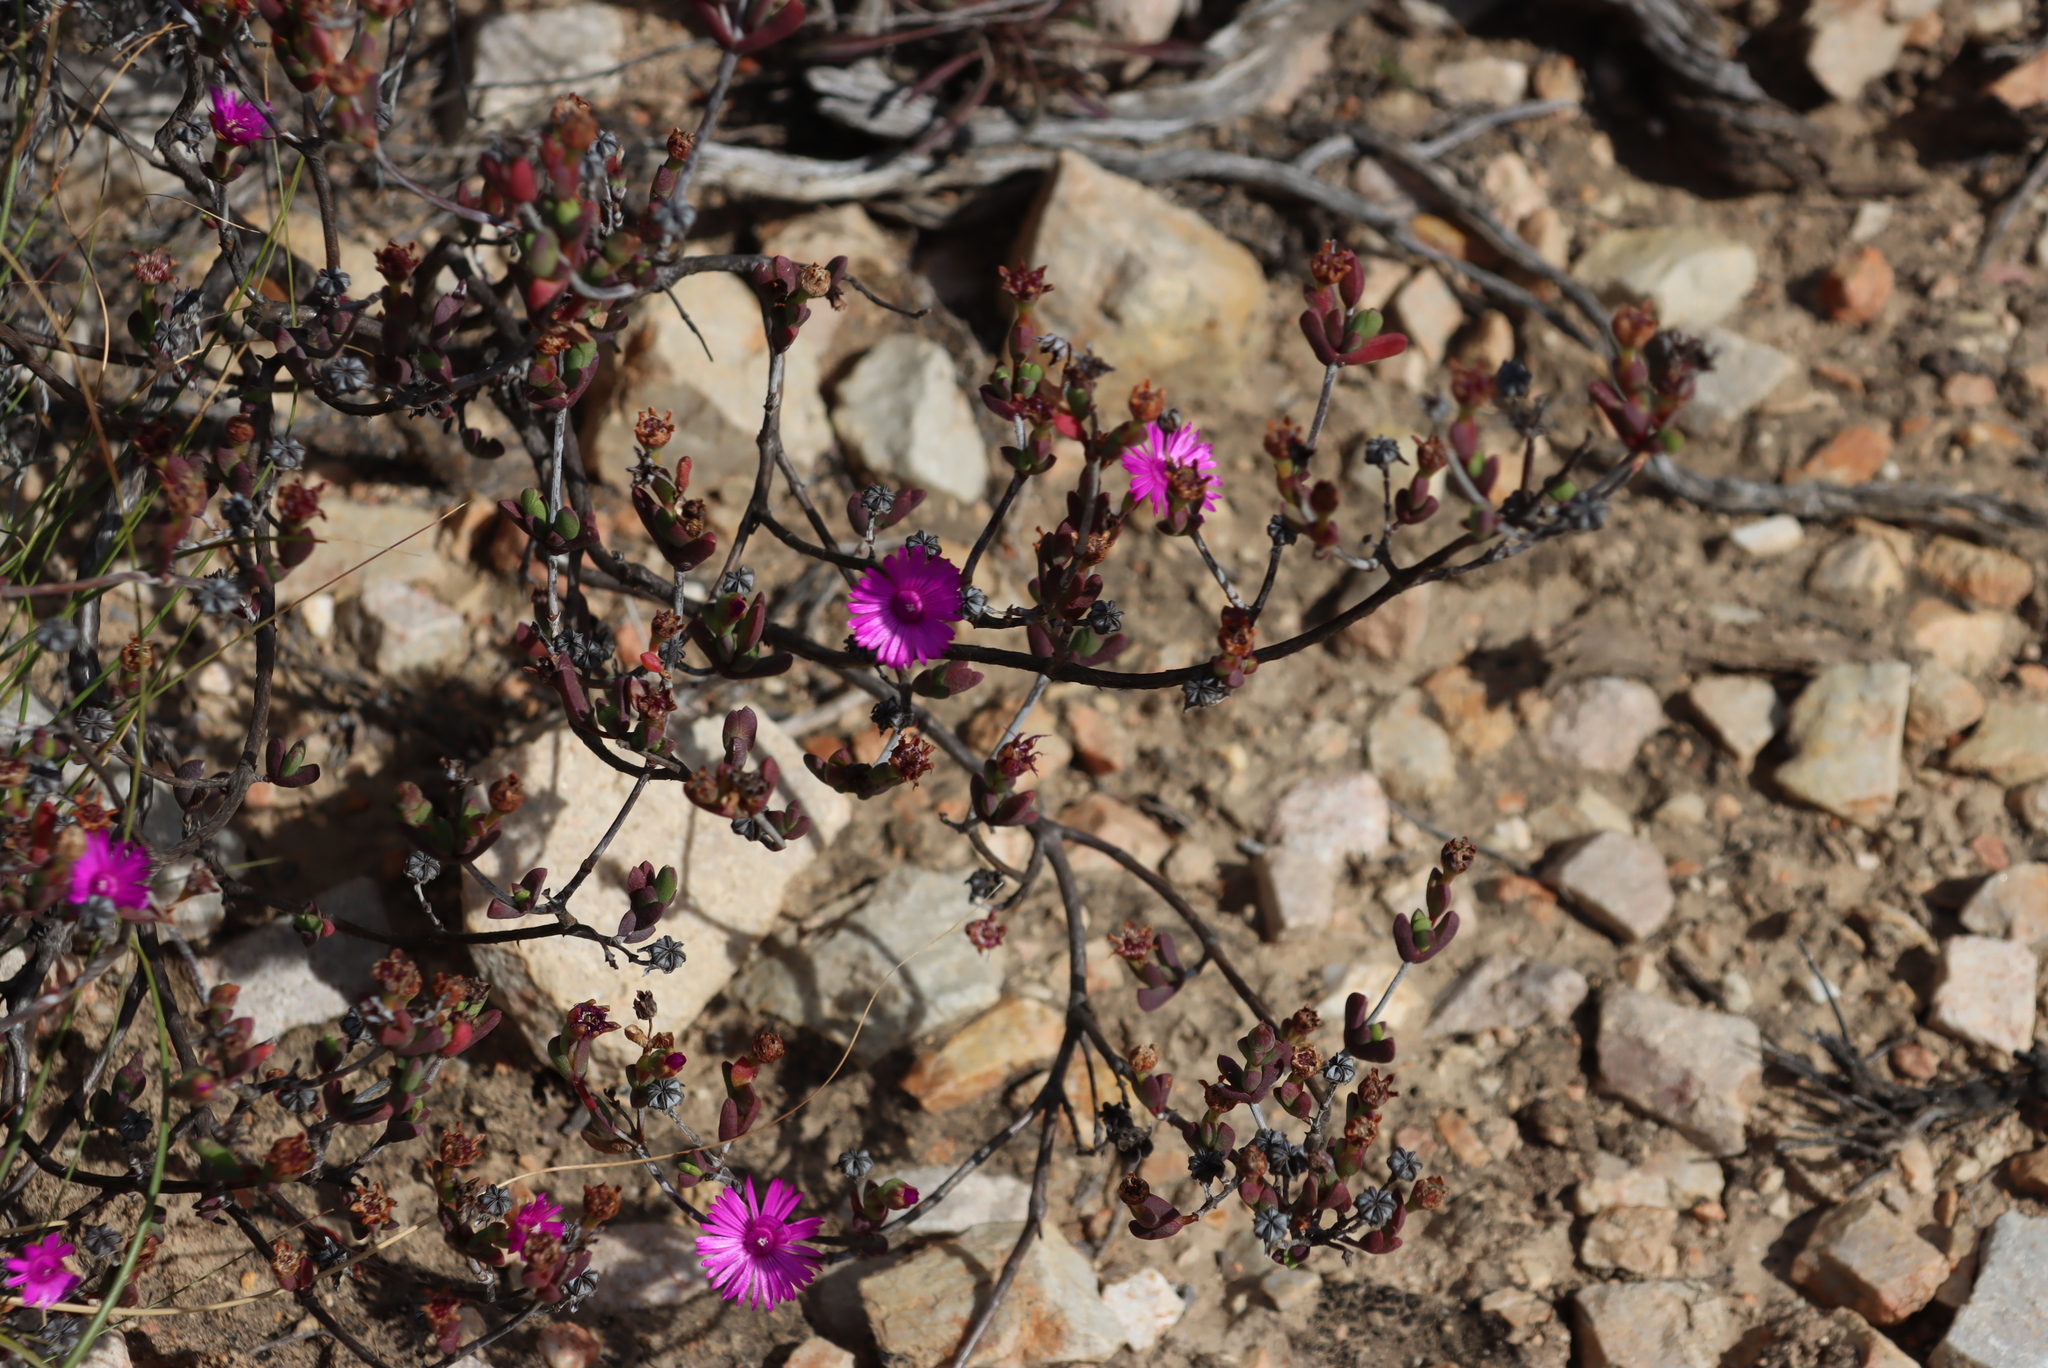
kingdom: Plantae
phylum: Tracheophyta
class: Magnoliopsida
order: Caryophyllales
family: Aizoaceae
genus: Esterhuysenia
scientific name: Esterhuysenia knysnana
